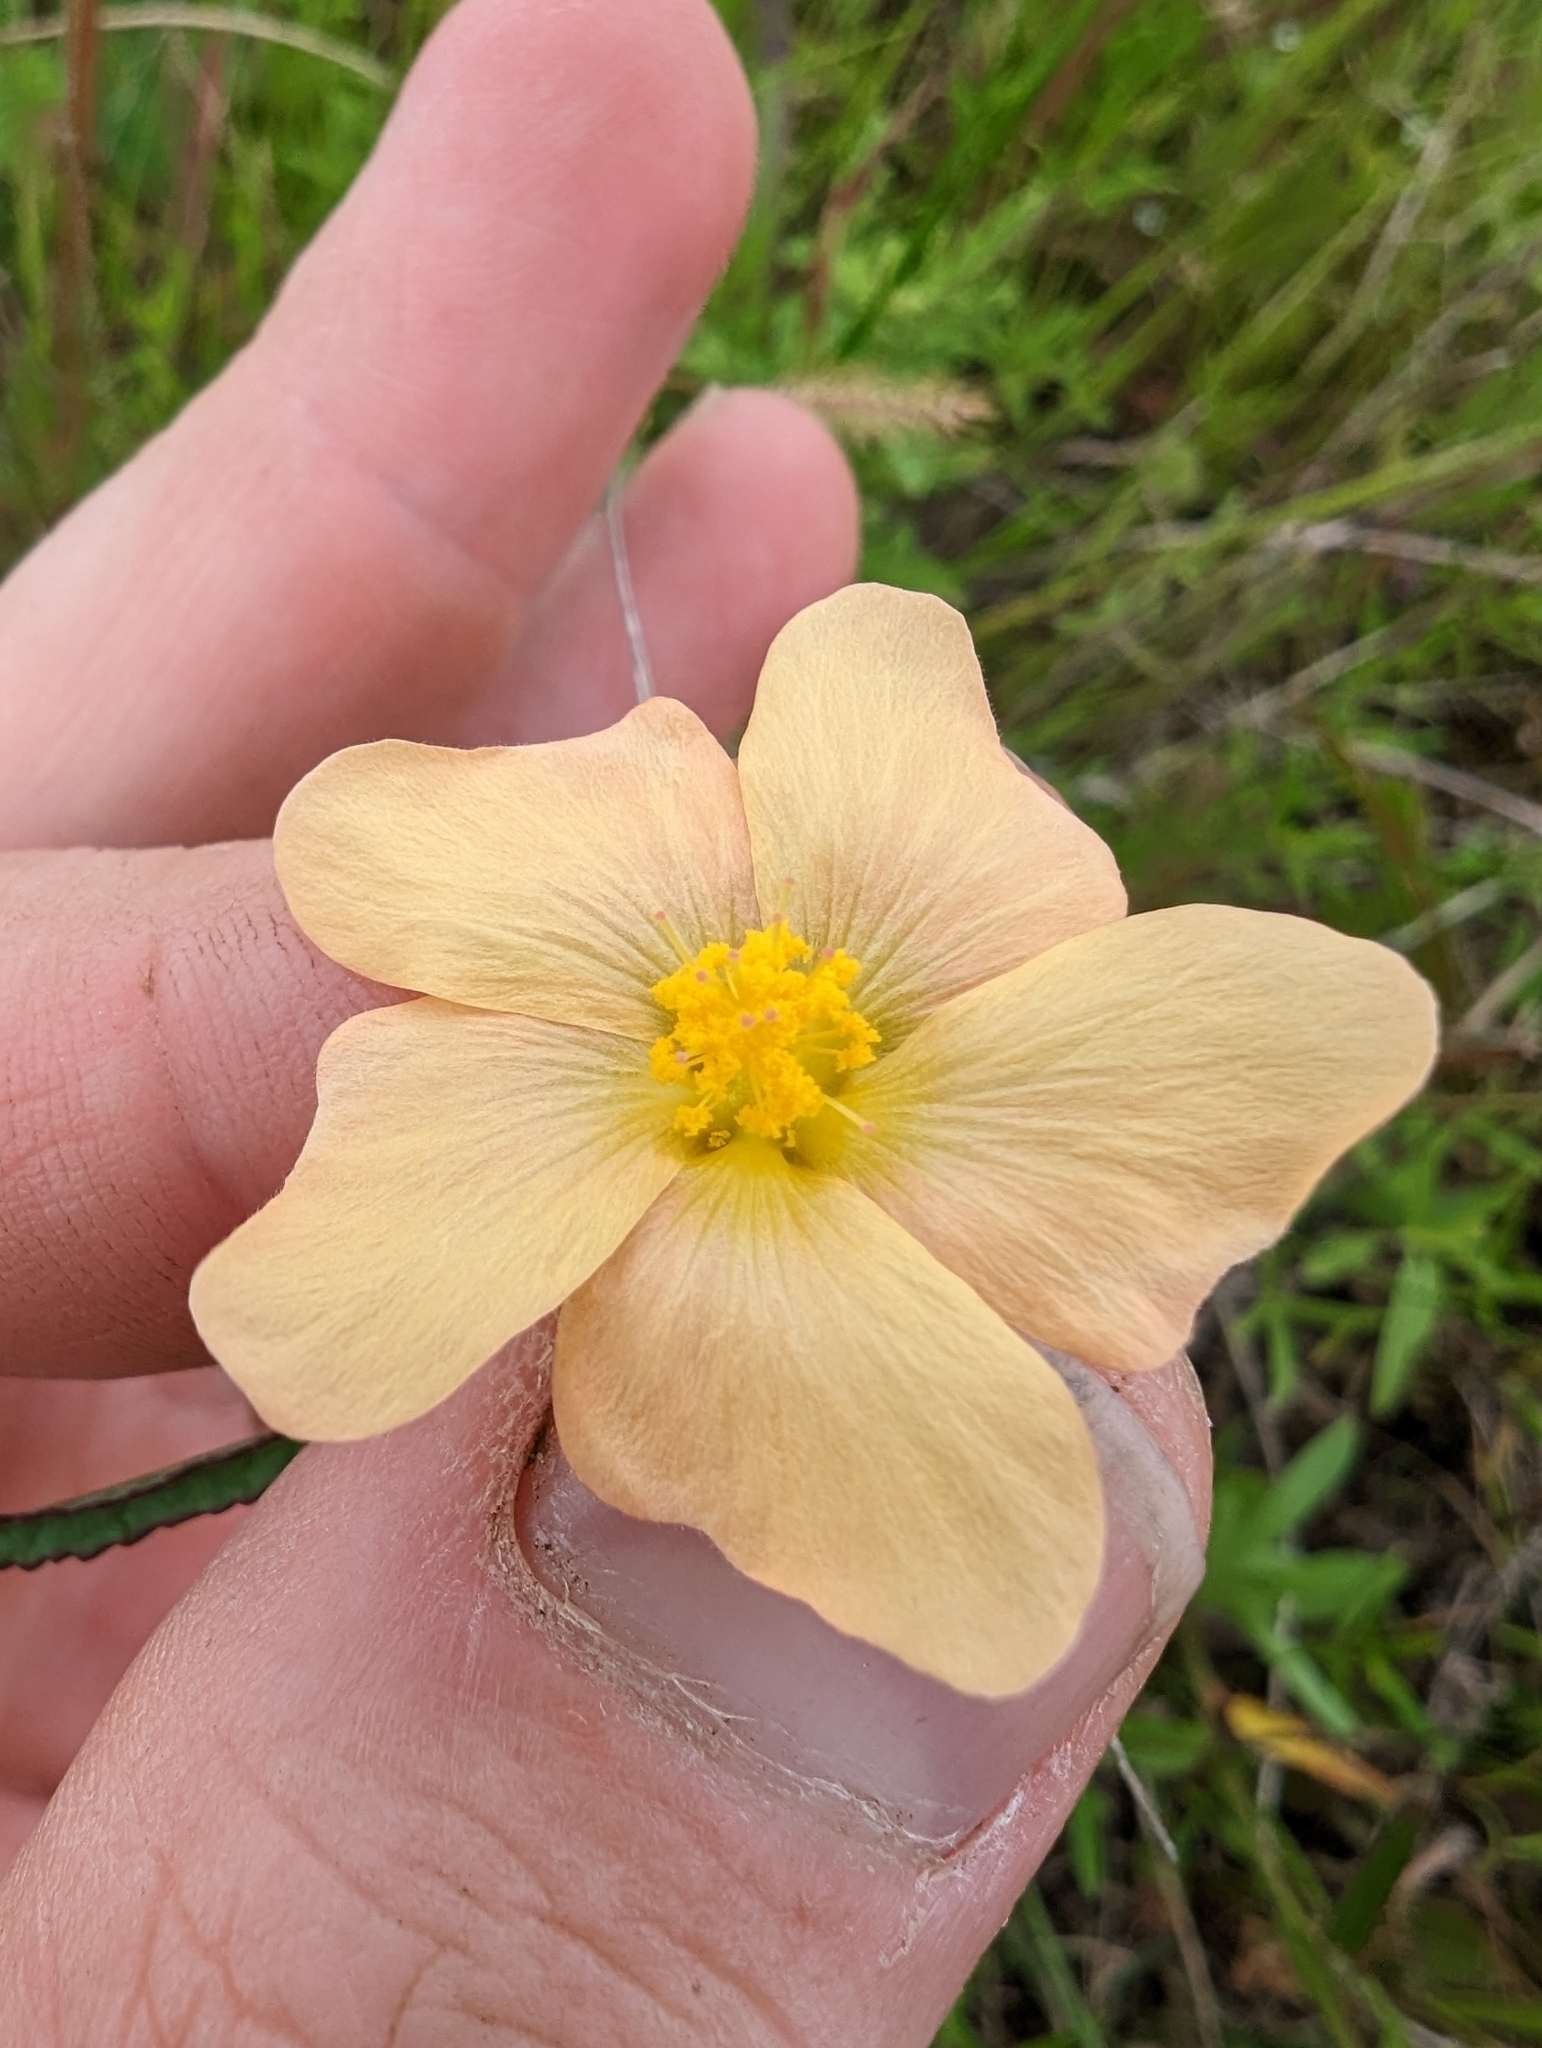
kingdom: Plantae
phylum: Tracheophyta
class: Magnoliopsida
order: Malvales
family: Malvaceae
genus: Sida
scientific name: Sida lindheimeri
